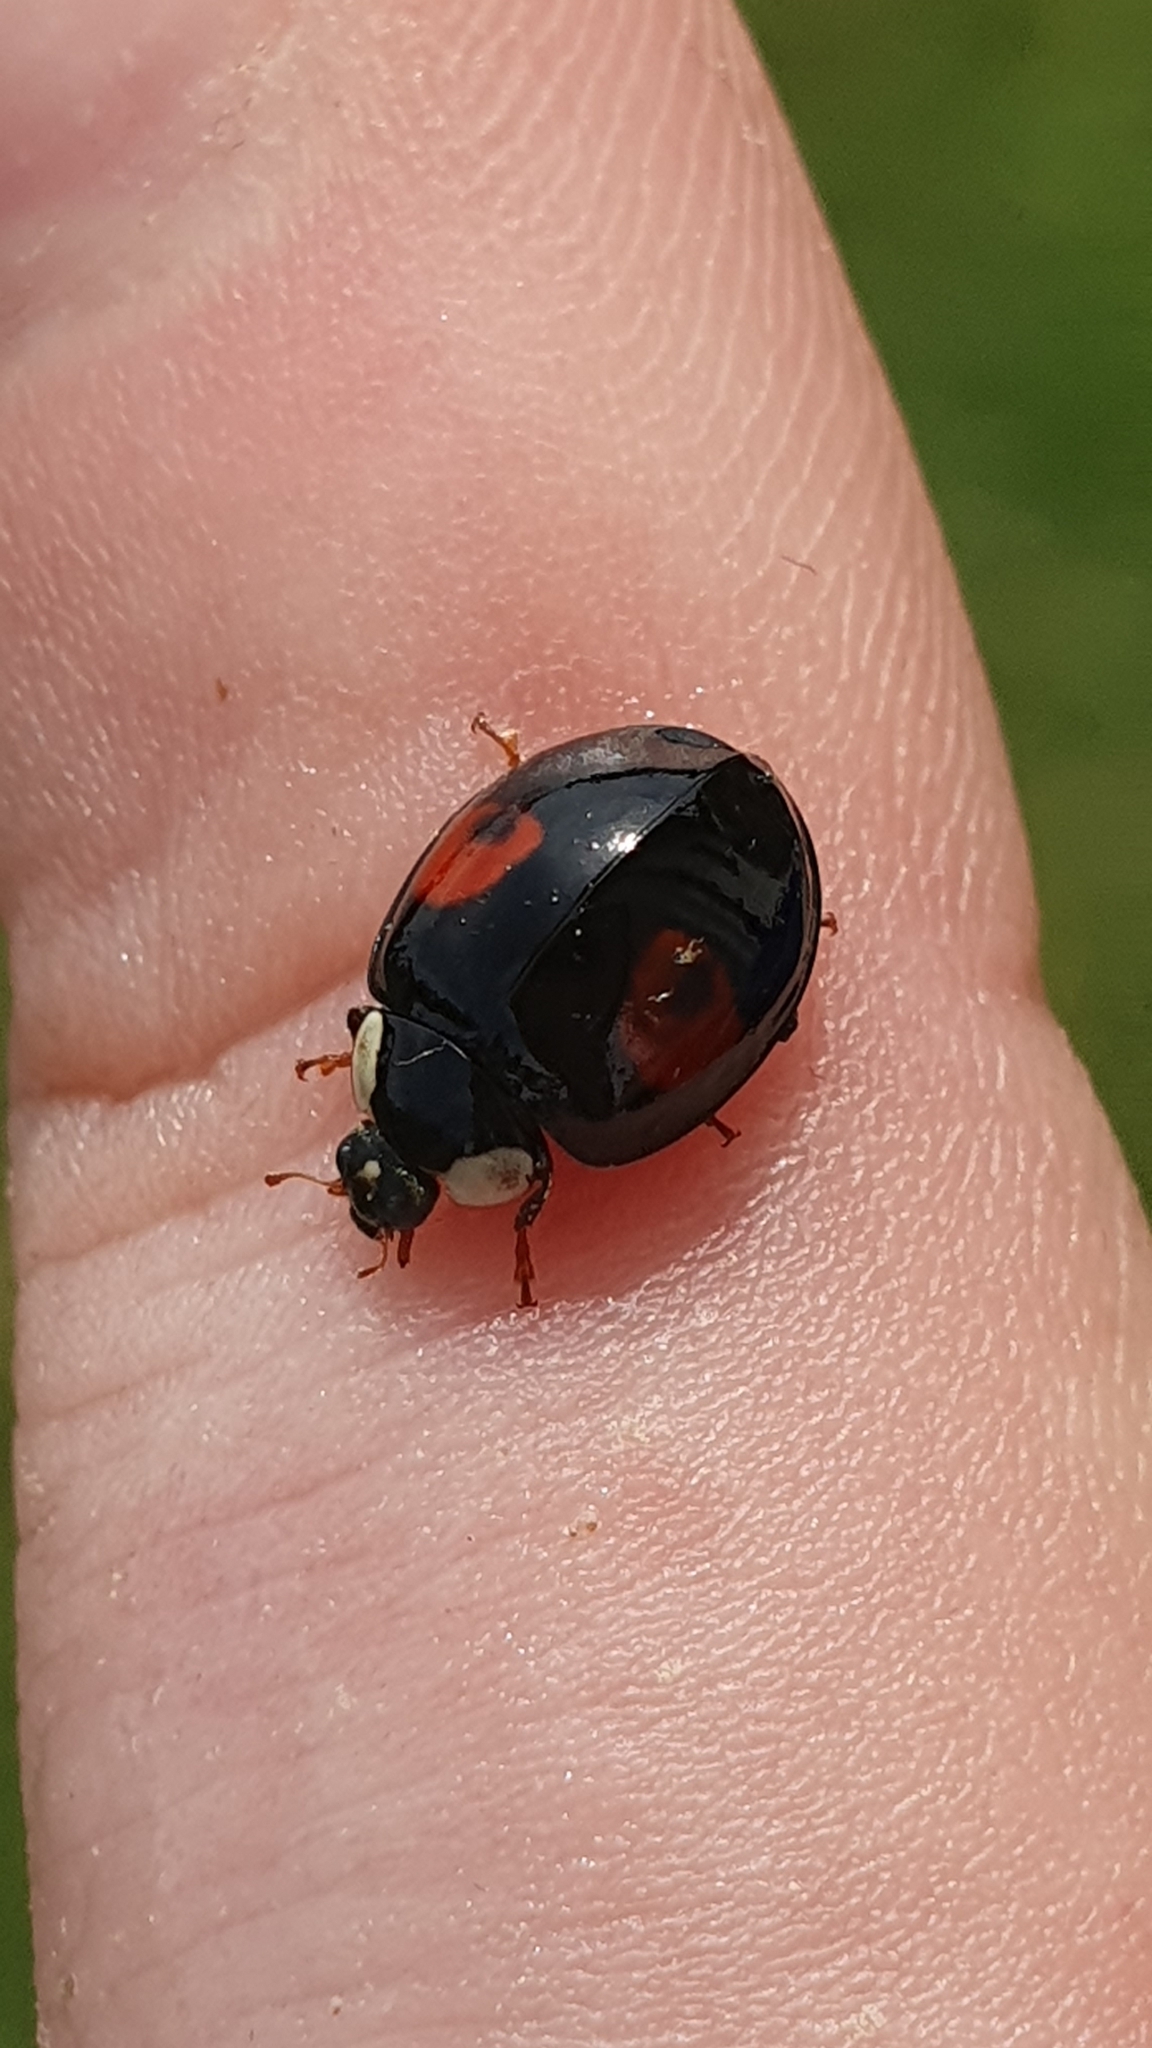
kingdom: Animalia
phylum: Arthropoda
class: Insecta
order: Coleoptera
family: Coccinellidae
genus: Harmonia
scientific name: Harmonia axyridis
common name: Harlequin ladybird
